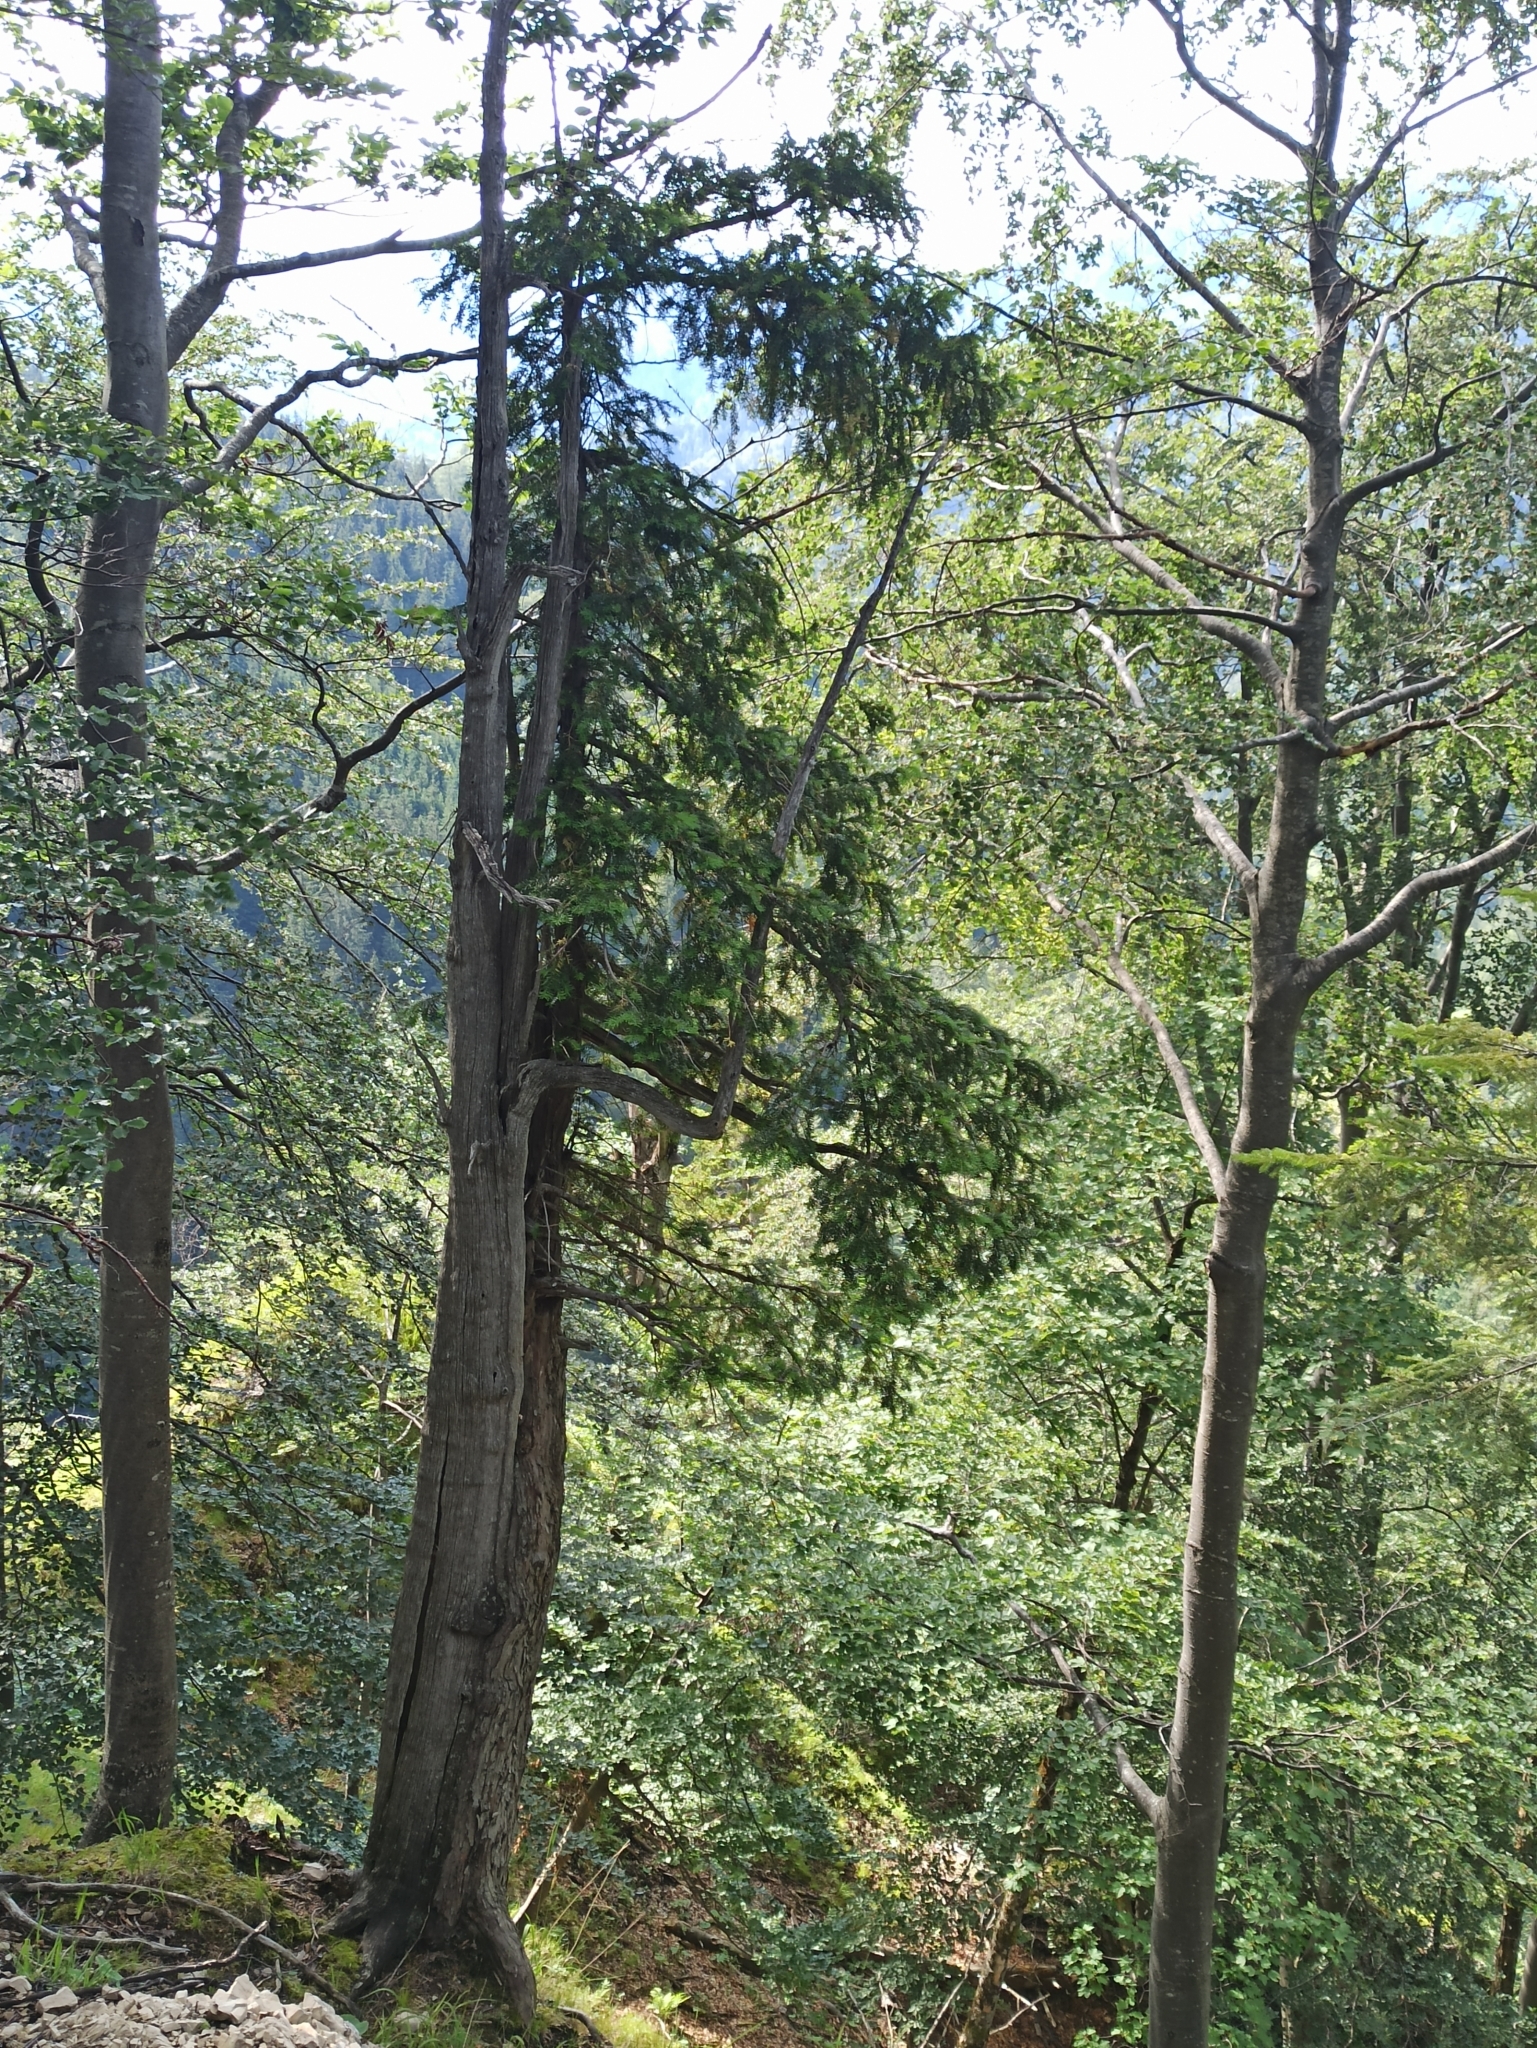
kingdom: Plantae
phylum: Tracheophyta
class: Pinopsida
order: Pinales
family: Taxaceae
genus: Taxus
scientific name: Taxus baccata
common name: Yew
